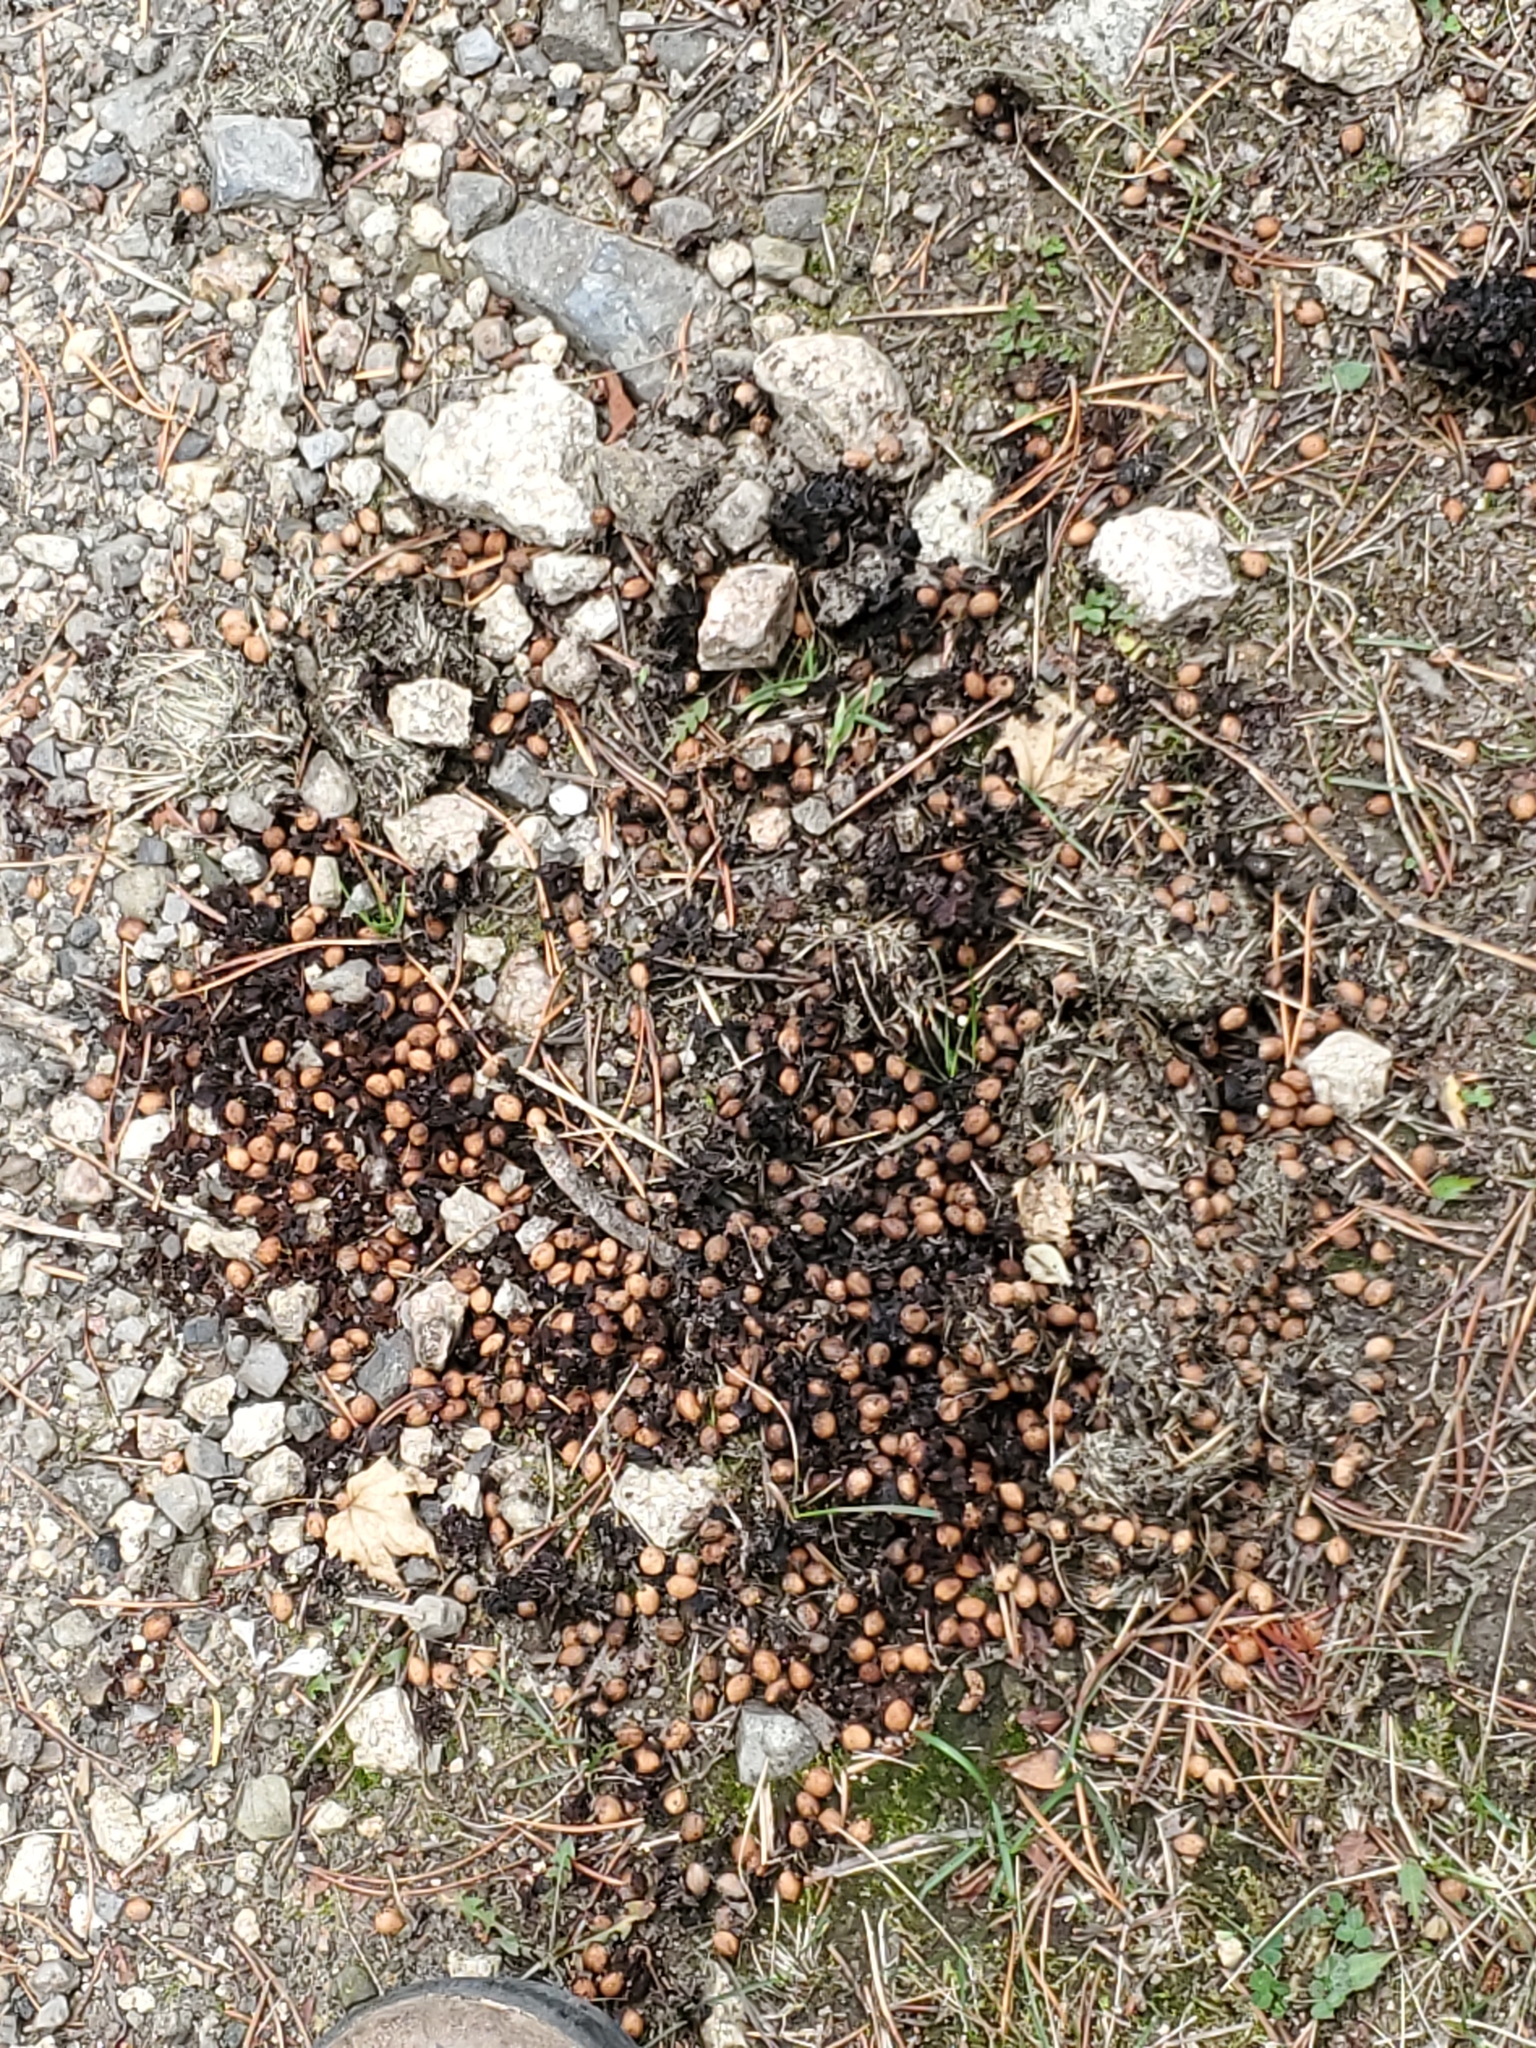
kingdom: Animalia
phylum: Chordata
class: Mammalia
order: Carnivora
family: Ursidae
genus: Ursus
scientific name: Ursus americanus
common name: American black bear
